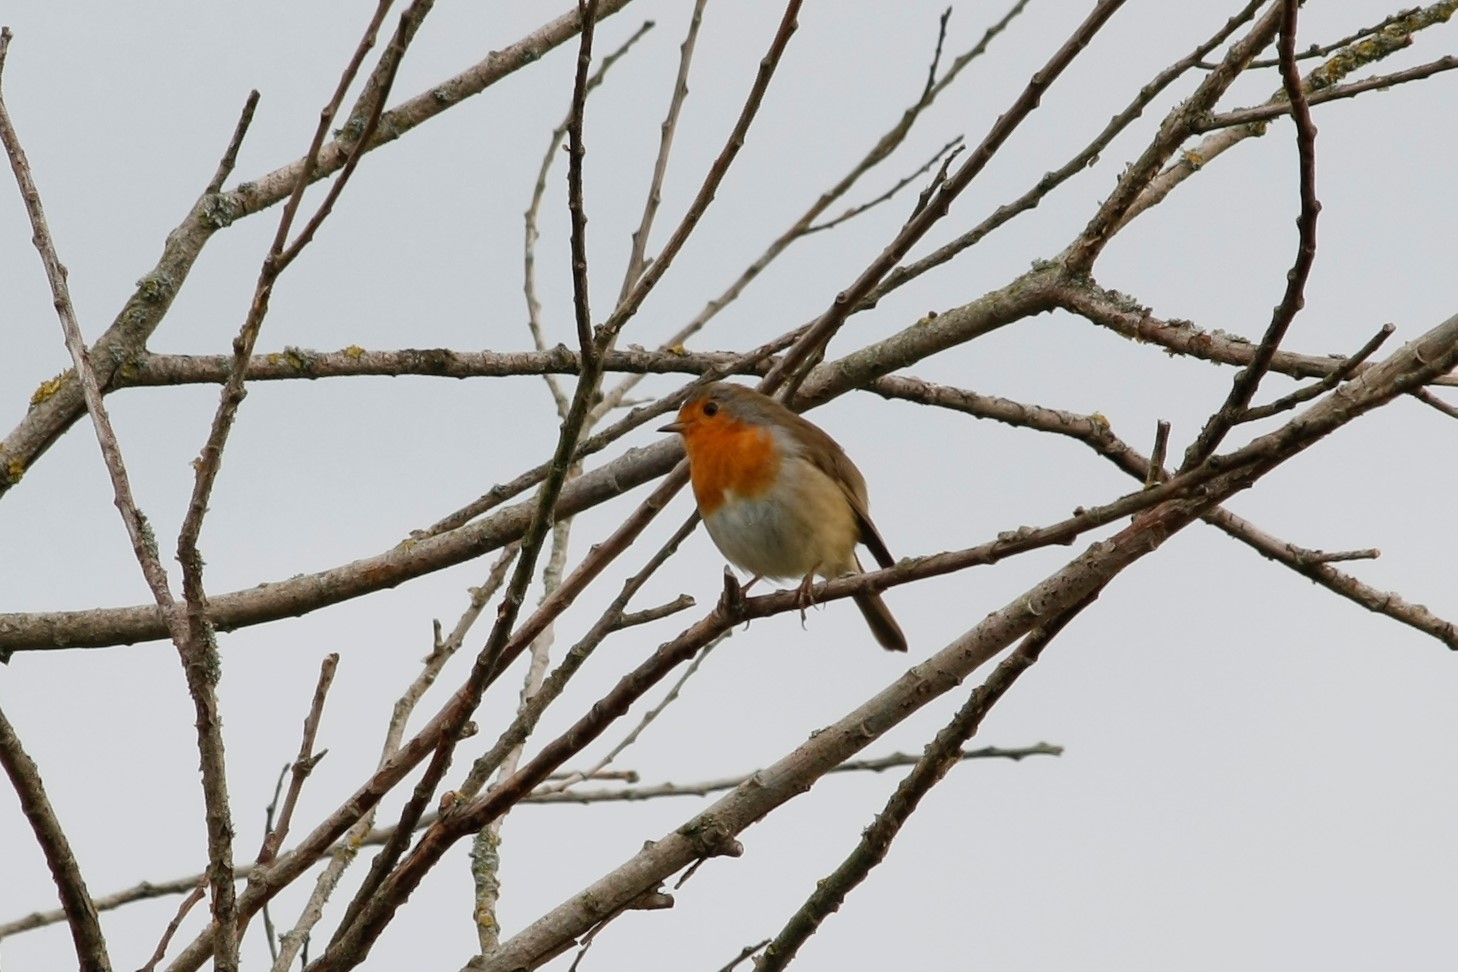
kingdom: Animalia
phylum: Chordata
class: Aves
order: Passeriformes
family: Muscicapidae
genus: Erithacus
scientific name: Erithacus rubecula
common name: European robin
